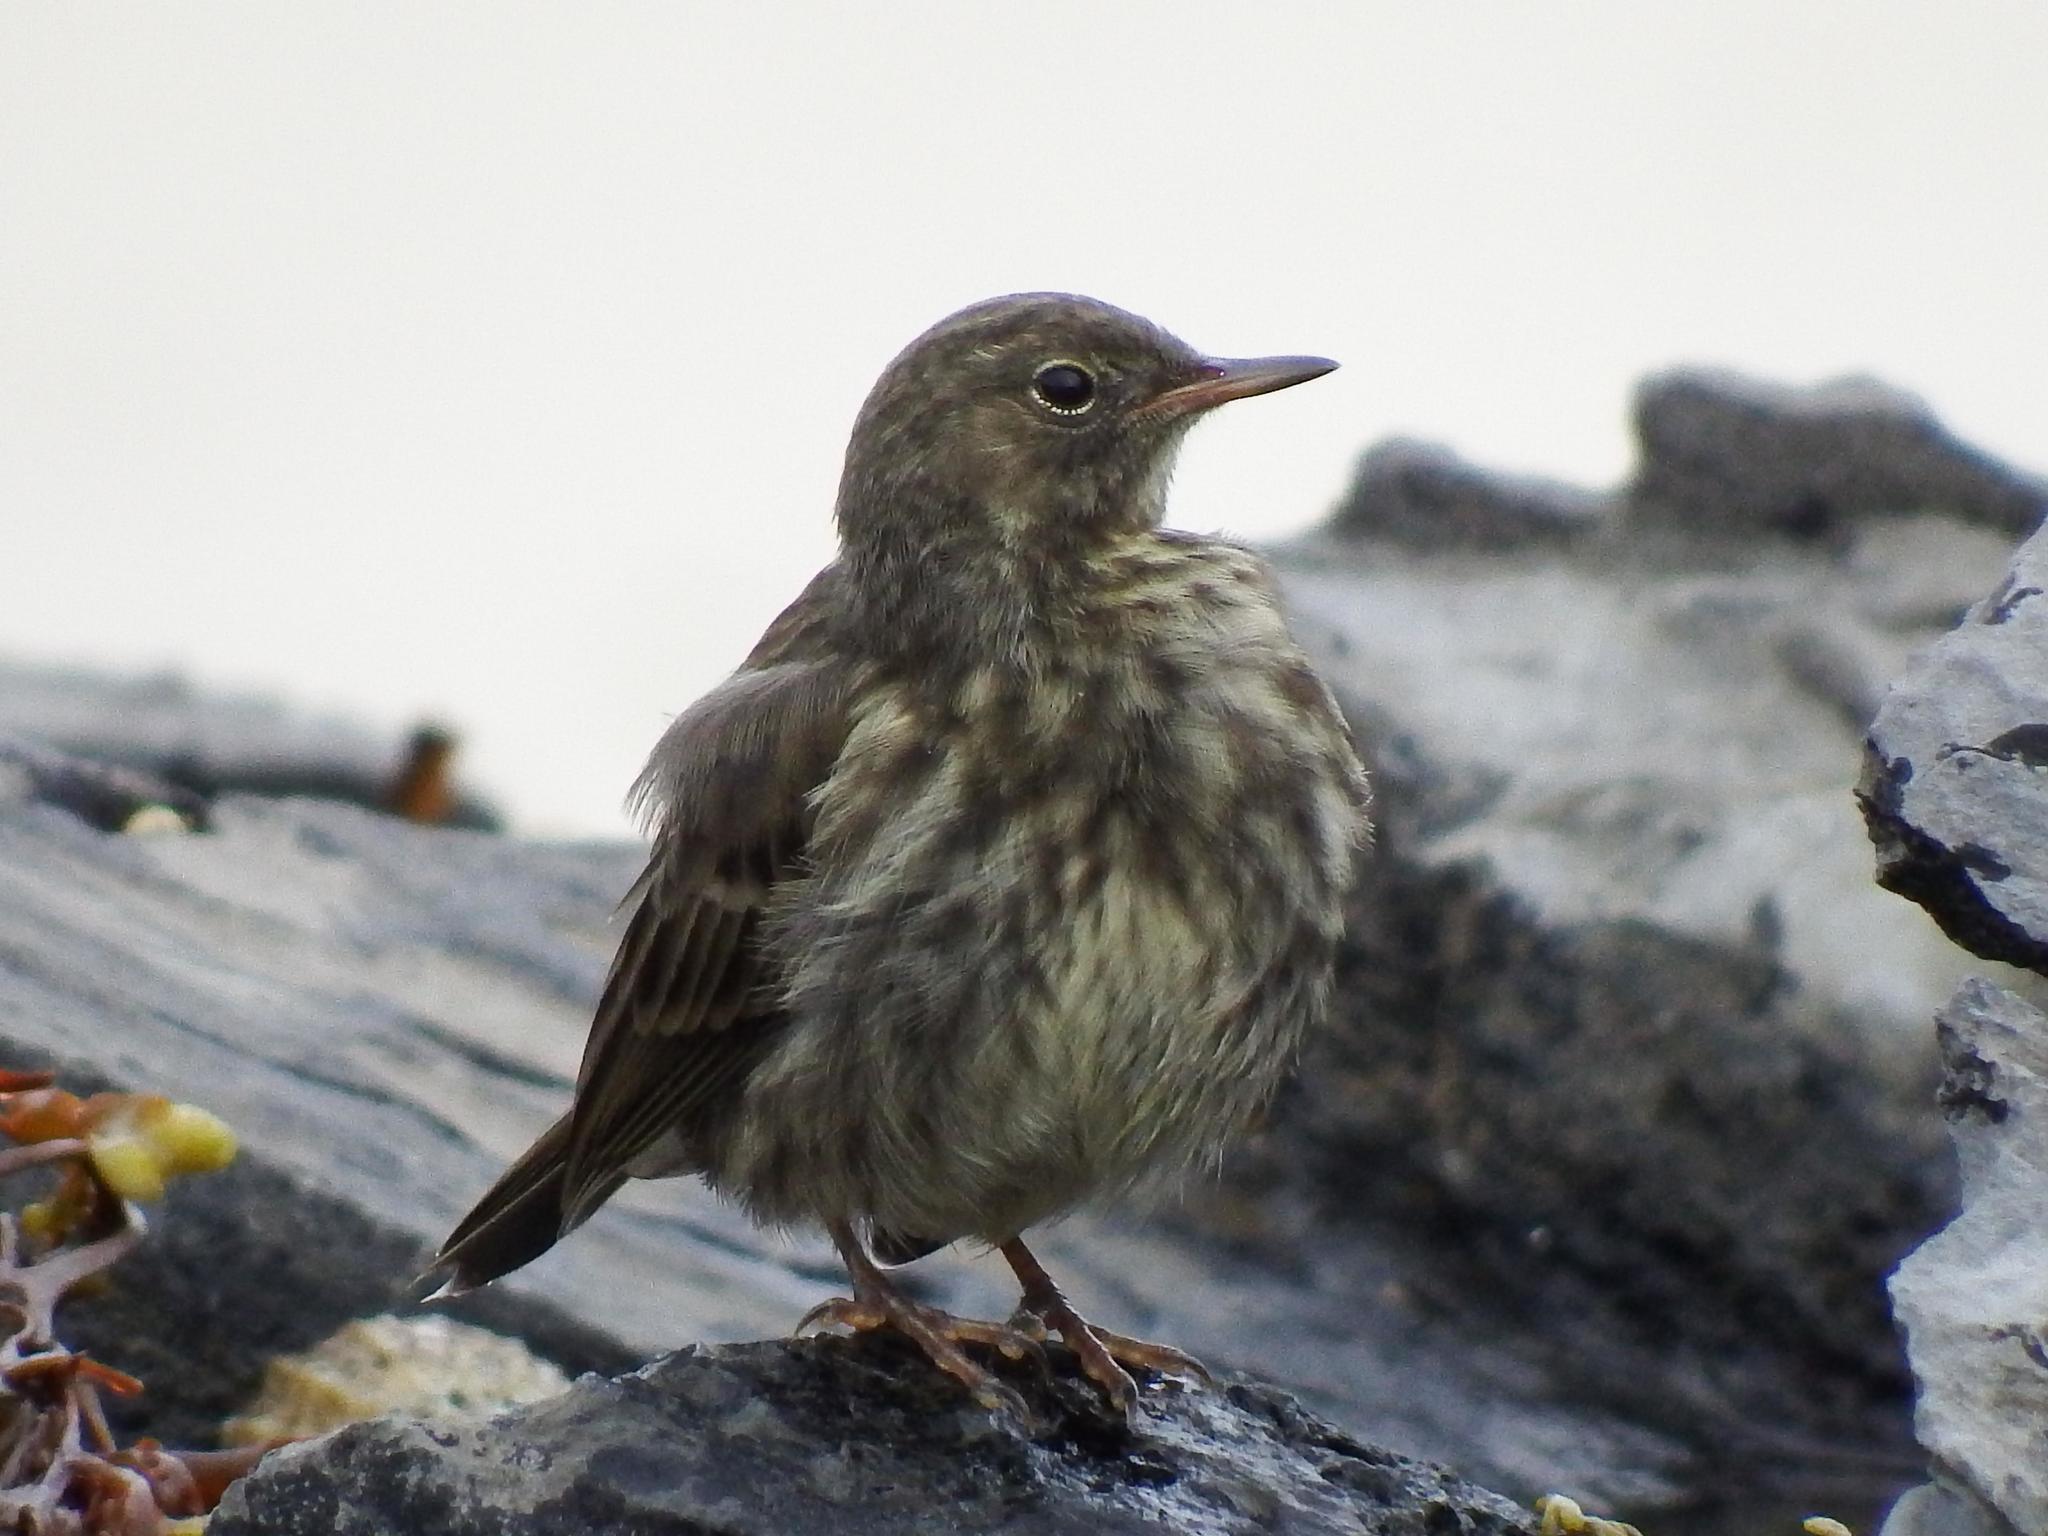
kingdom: Animalia
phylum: Chordata
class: Aves
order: Passeriformes
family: Motacillidae
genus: Anthus
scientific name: Anthus petrosus
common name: Eurasian rock pipit
